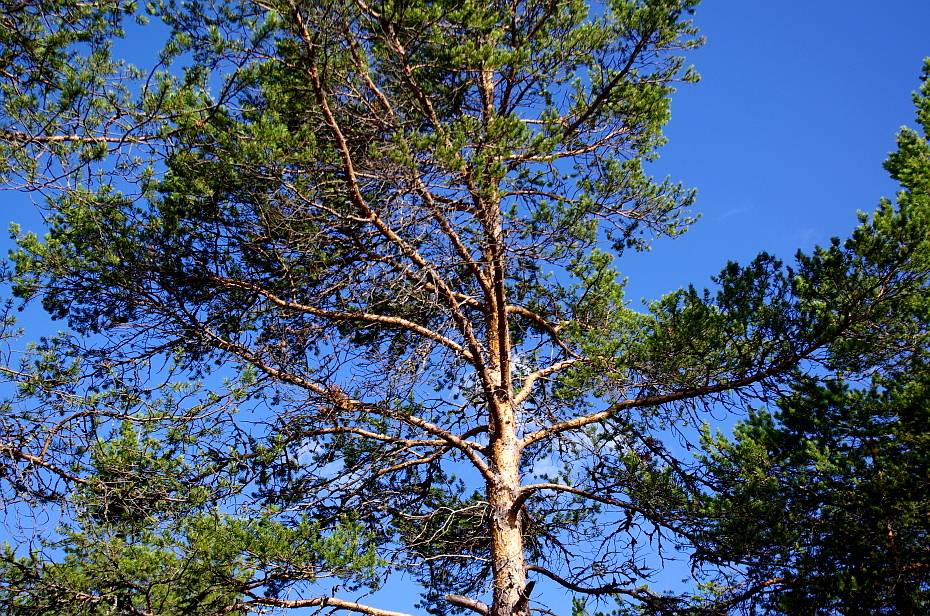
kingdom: Plantae
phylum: Tracheophyta
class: Pinopsida
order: Pinales
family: Pinaceae
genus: Pinus
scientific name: Pinus sylvestris
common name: Scots pine
